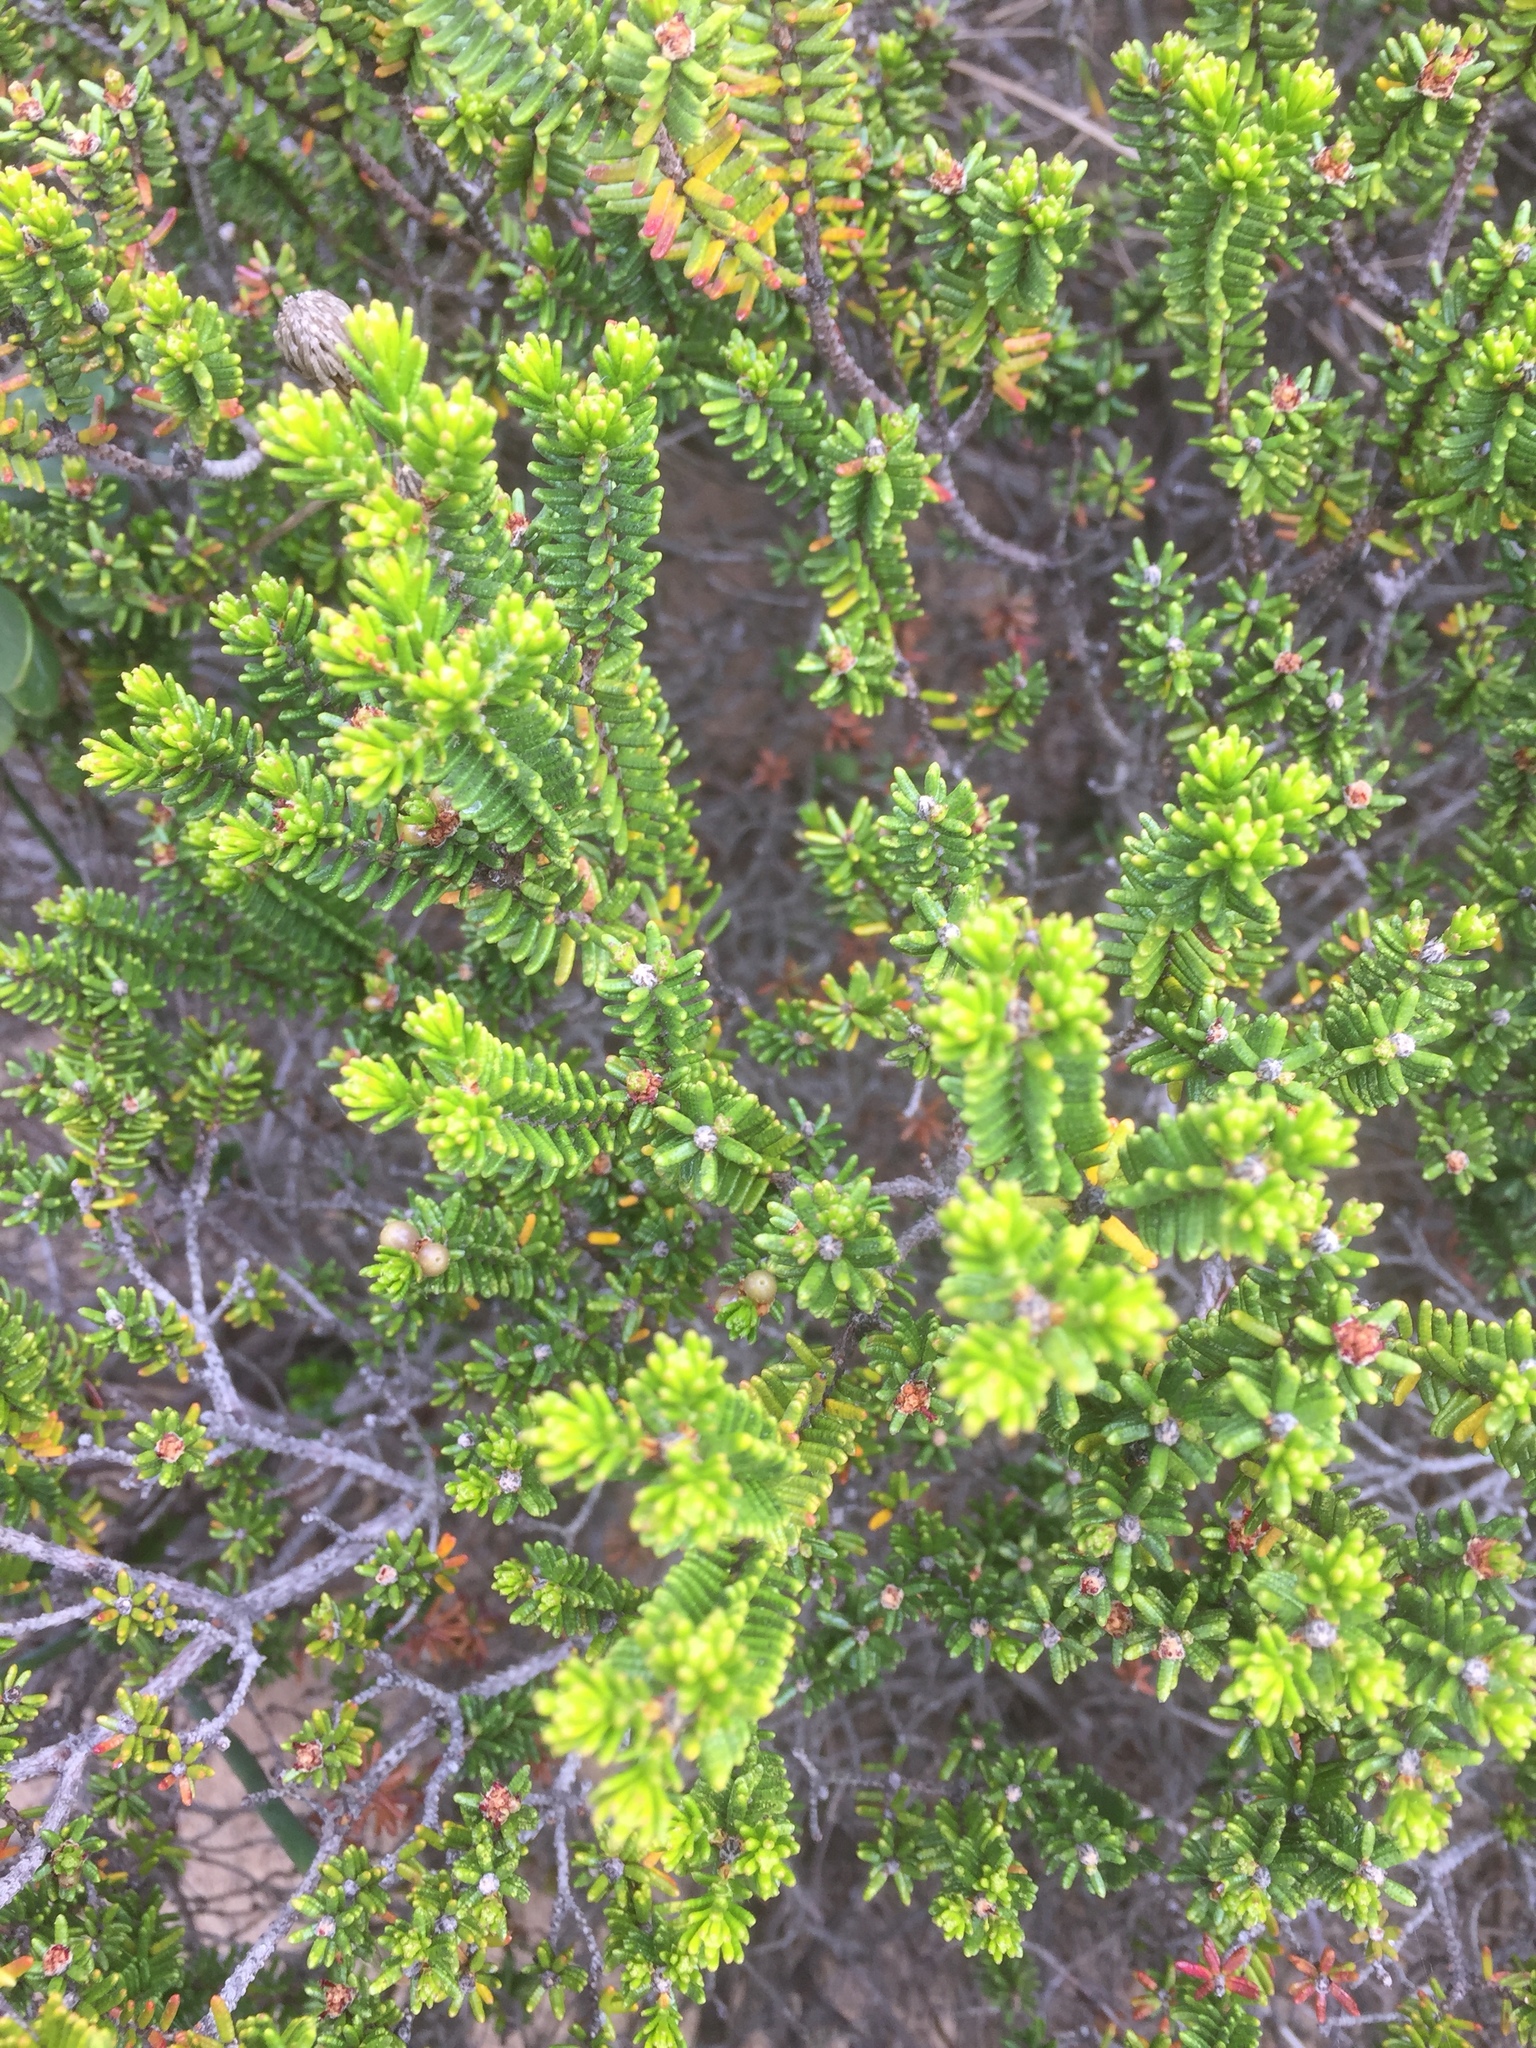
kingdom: Plantae
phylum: Tracheophyta
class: Magnoliopsida
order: Ericales
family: Ericaceae
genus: Corema
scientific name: Corema album
